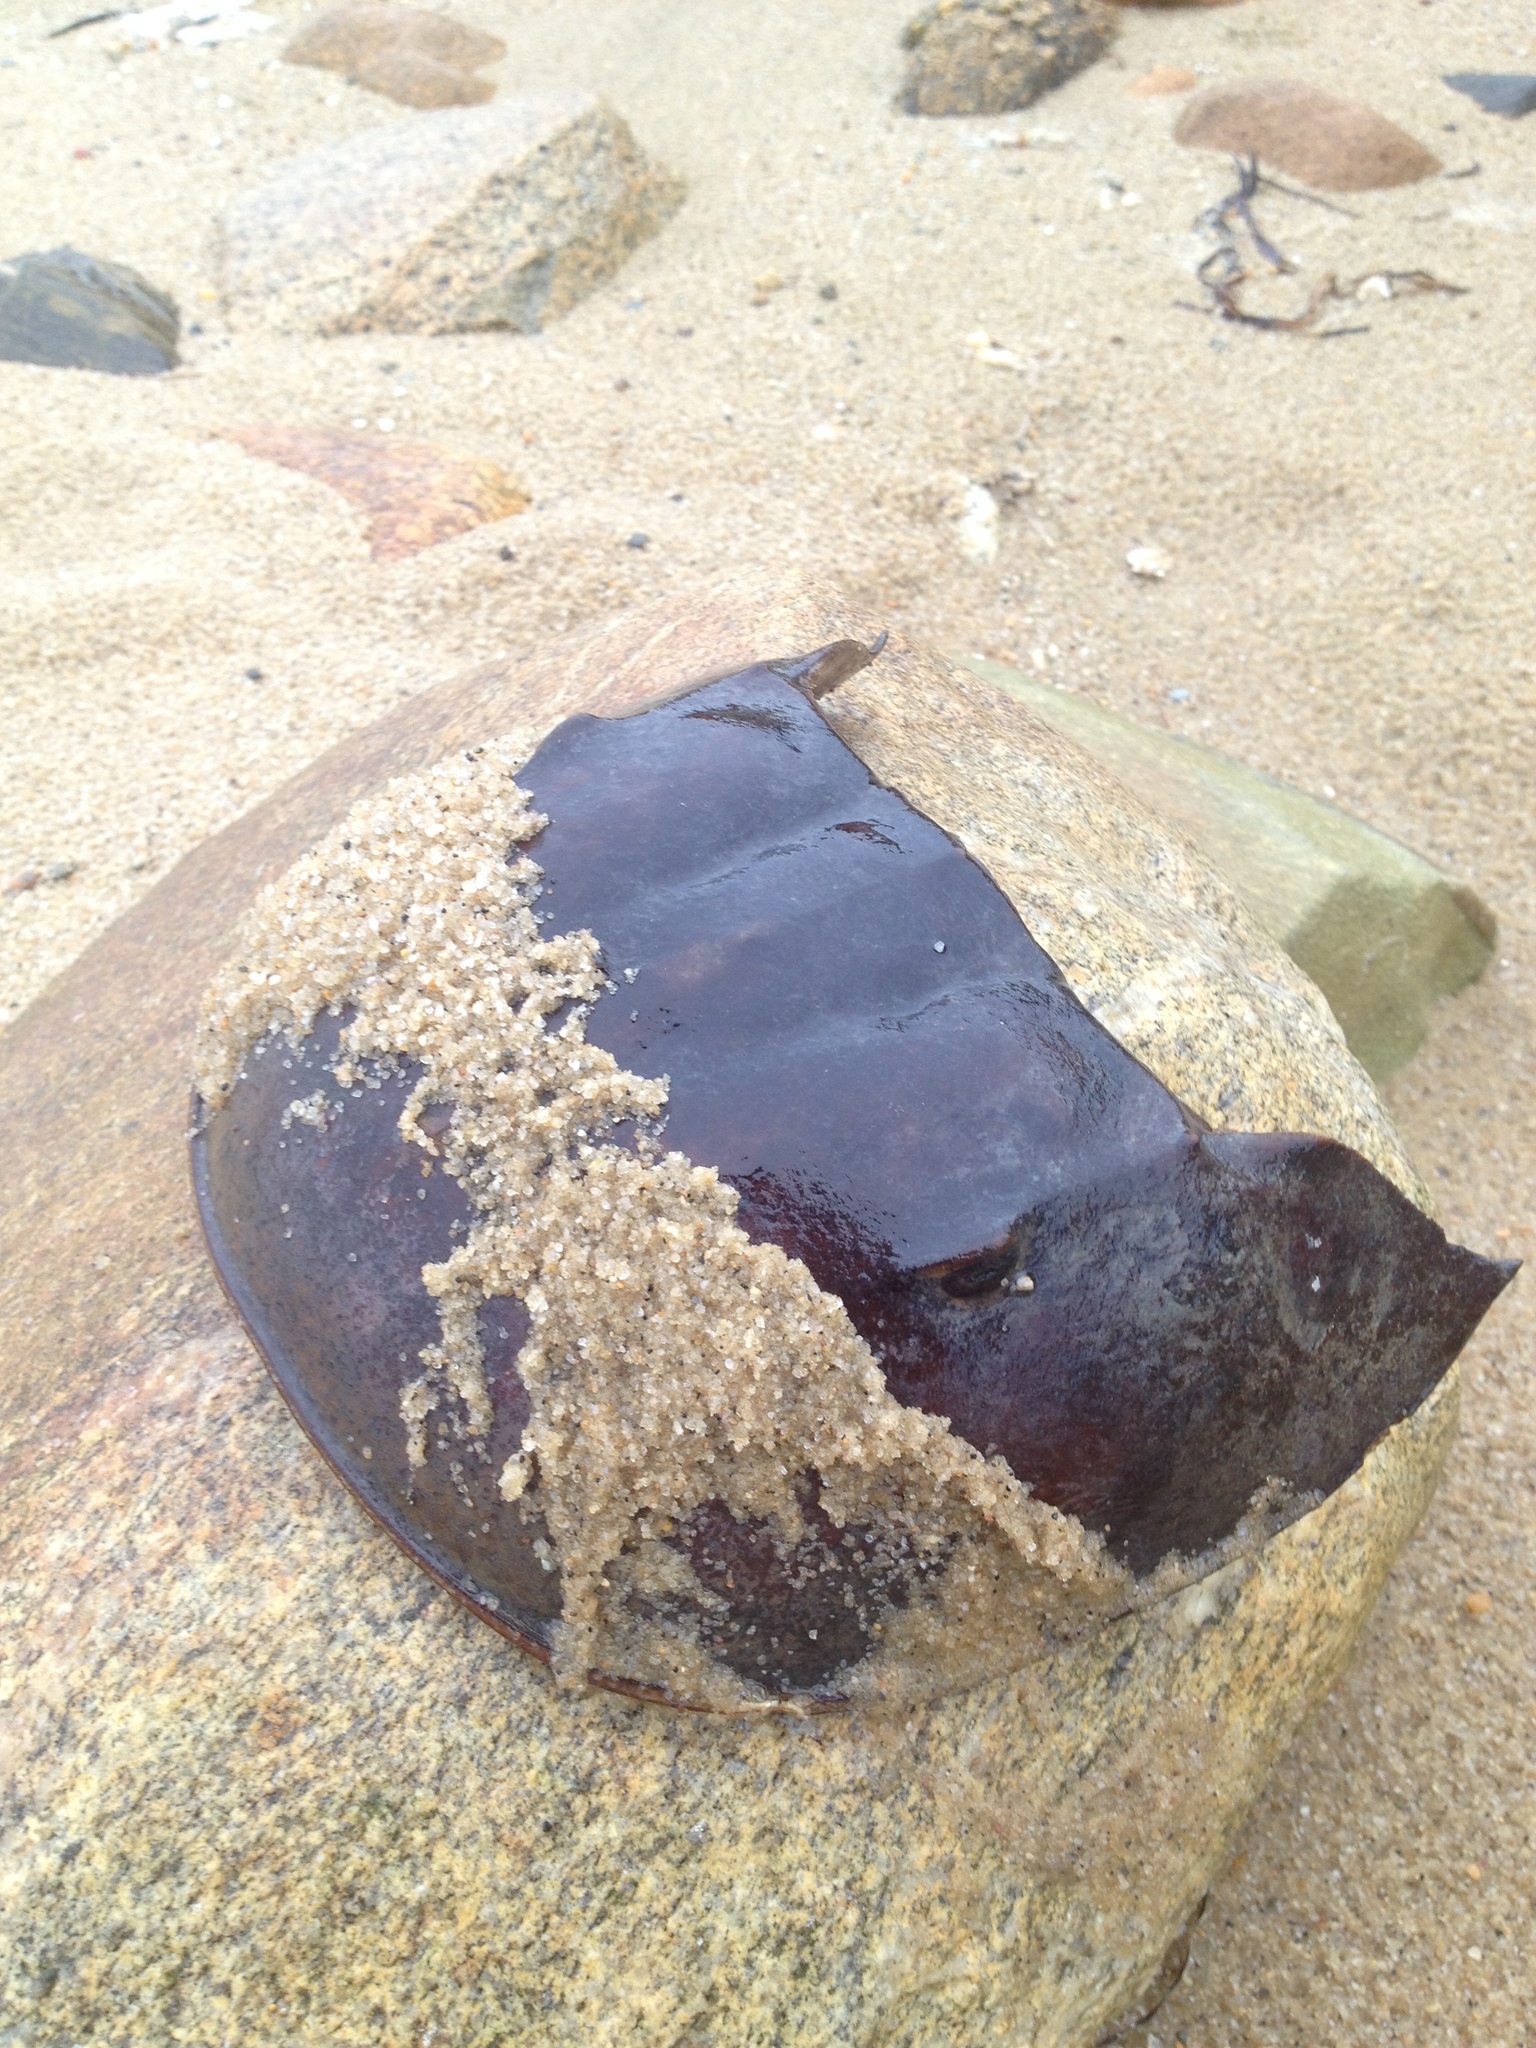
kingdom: Animalia
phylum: Arthropoda
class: Merostomata
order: Xiphosurida
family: Limulidae
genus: Limulus
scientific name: Limulus polyphemus
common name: Horseshoe crab
